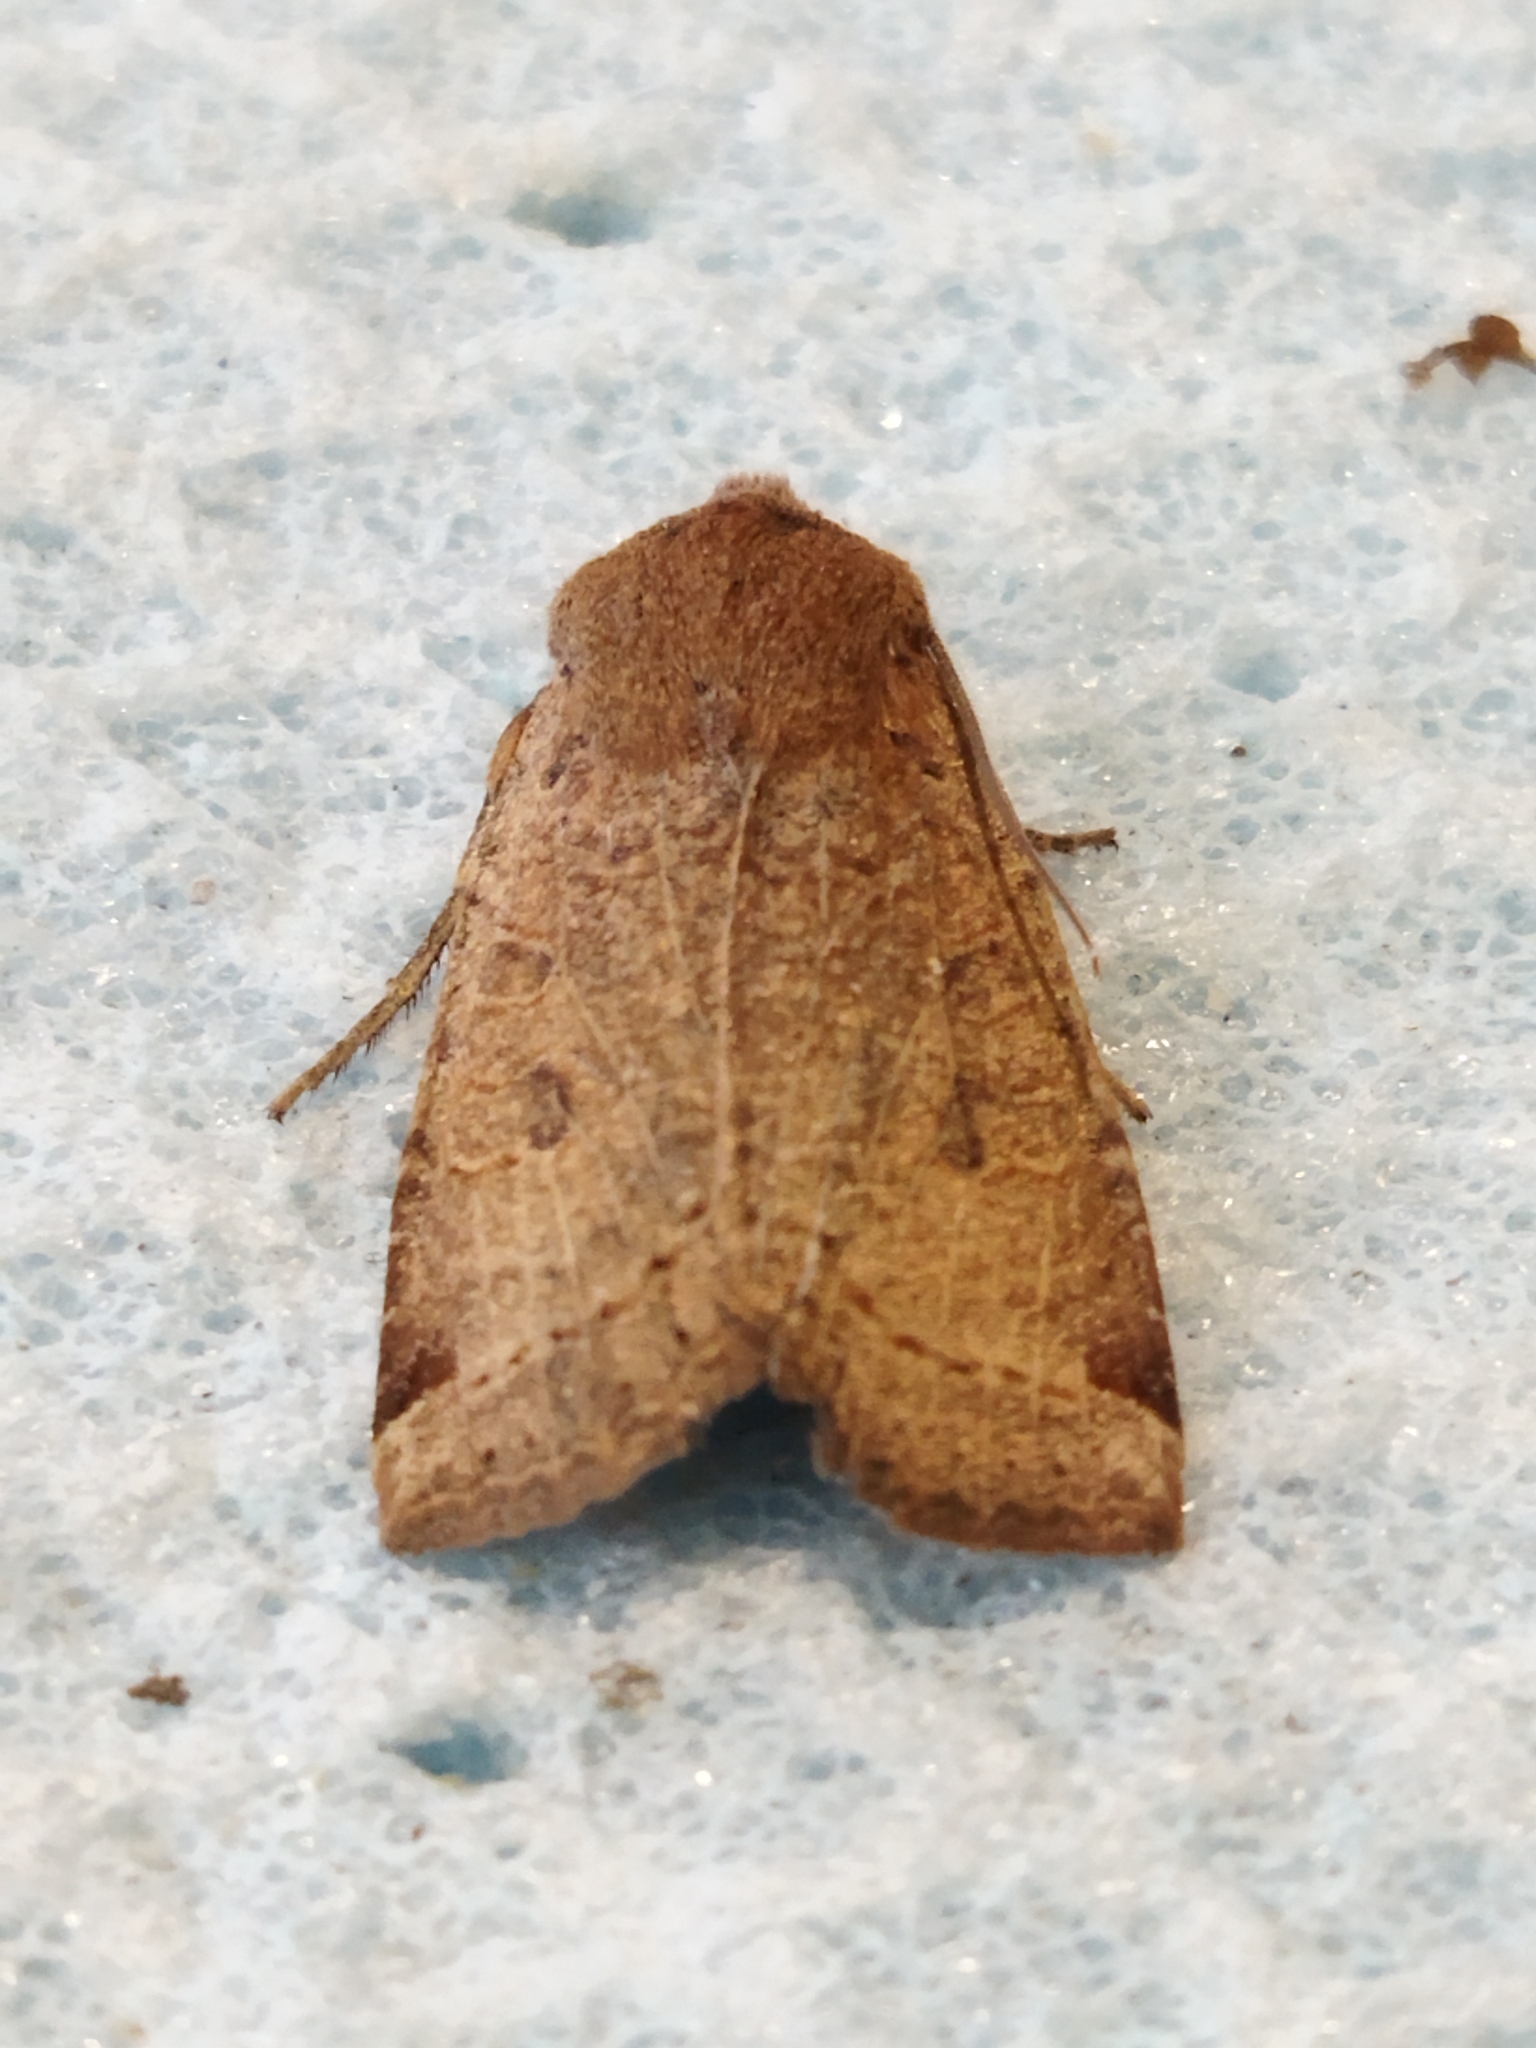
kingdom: Animalia
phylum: Arthropoda
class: Insecta
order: Lepidoptera
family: Noctuidae
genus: Conistra
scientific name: Conistra veronicae
